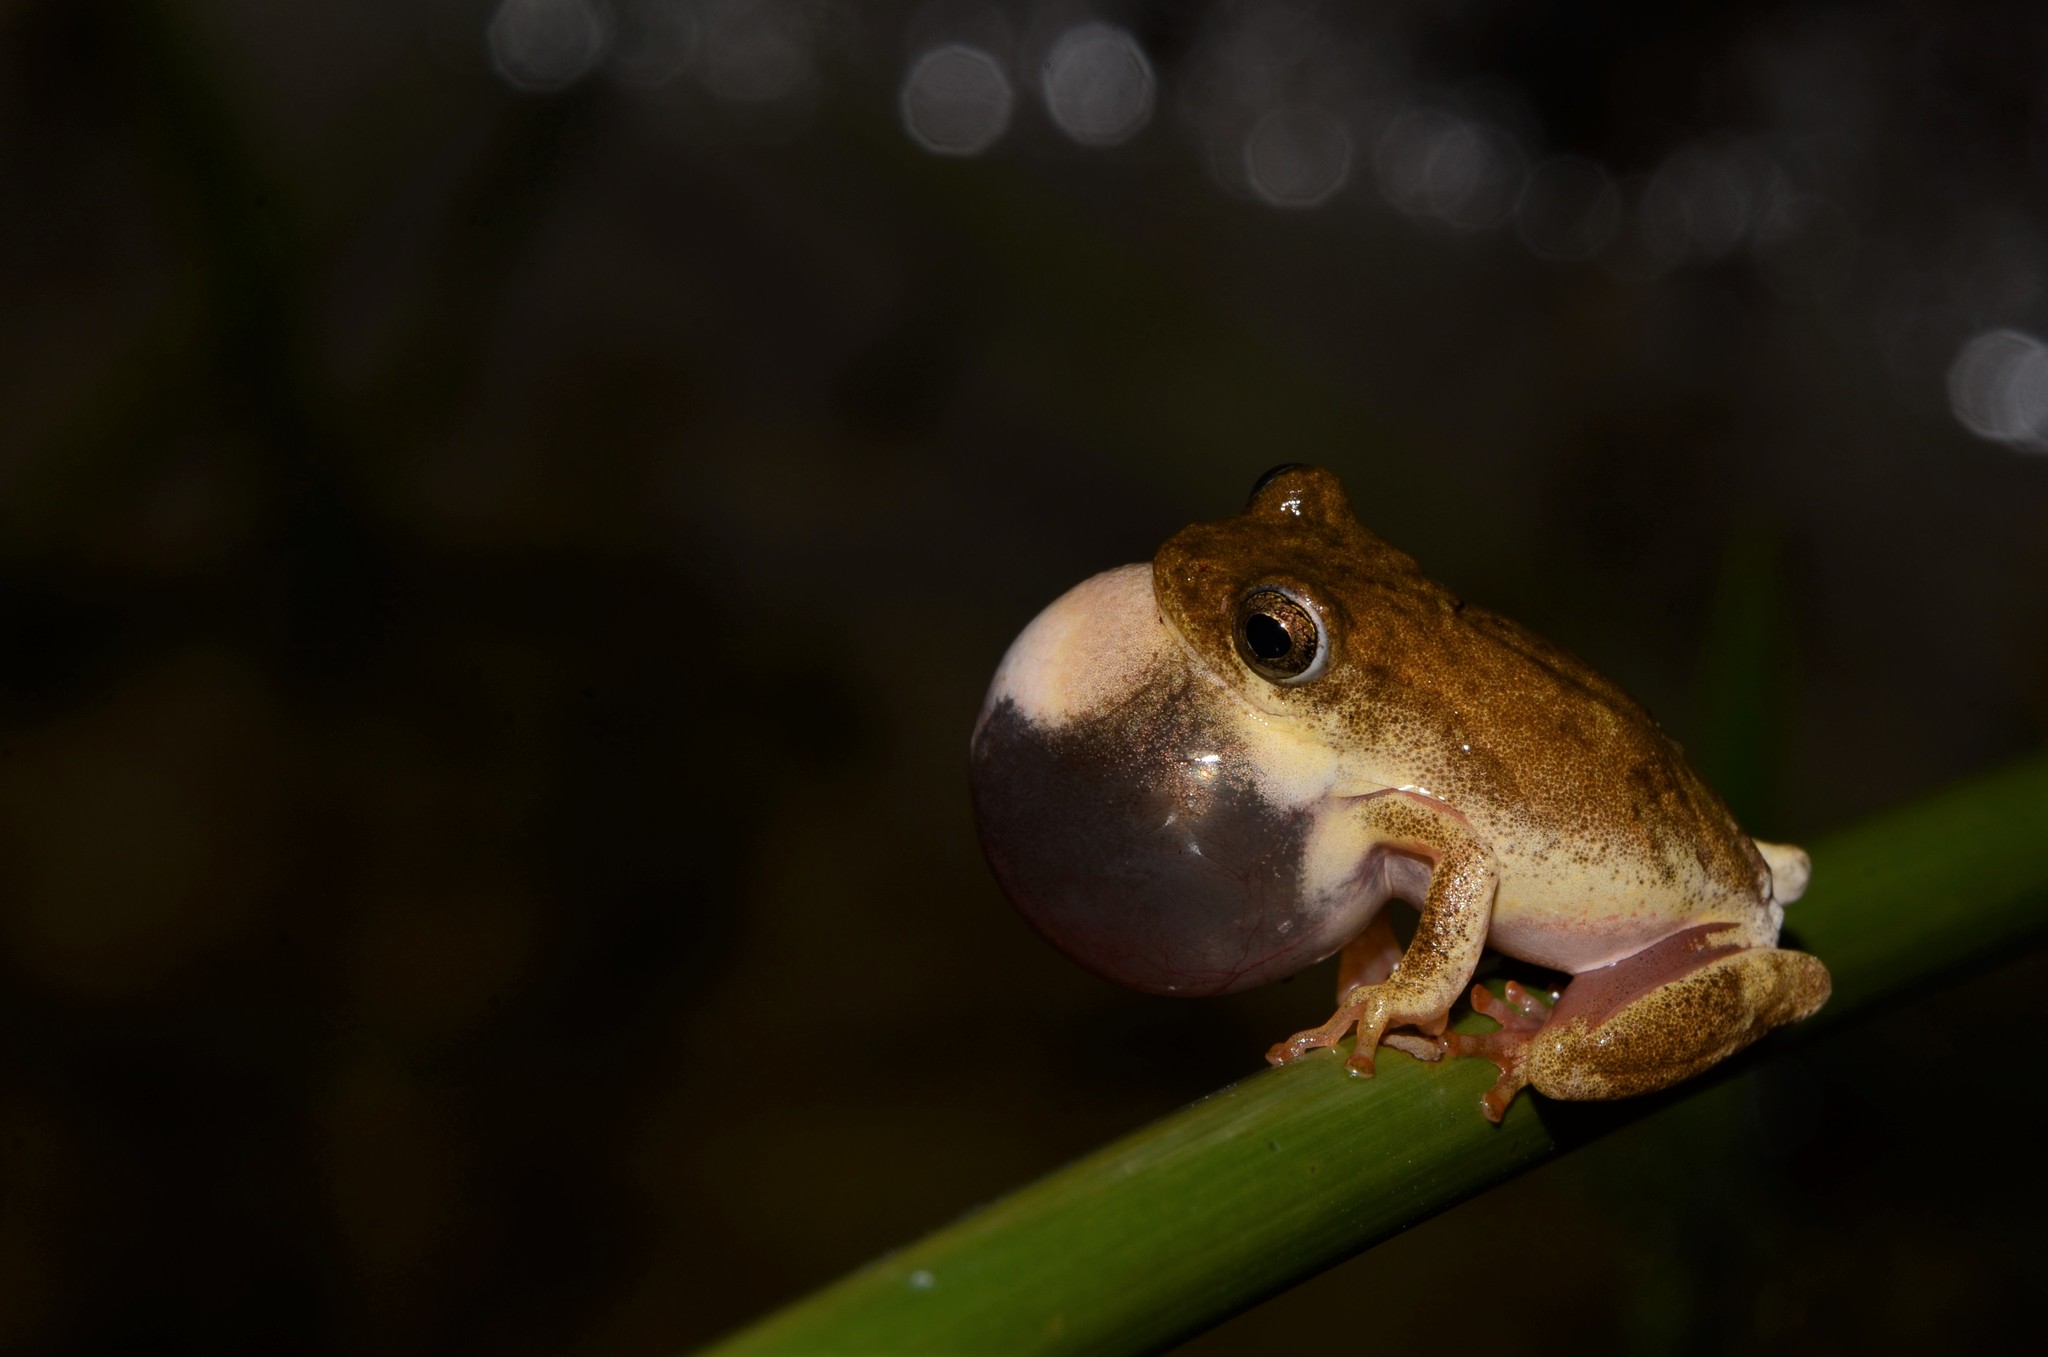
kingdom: Animalia
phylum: Chordata
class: Amphibia
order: Anura
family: Hyperoliidae
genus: Hyperolius
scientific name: Hyperolius marmoratus
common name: Painted reed frog
